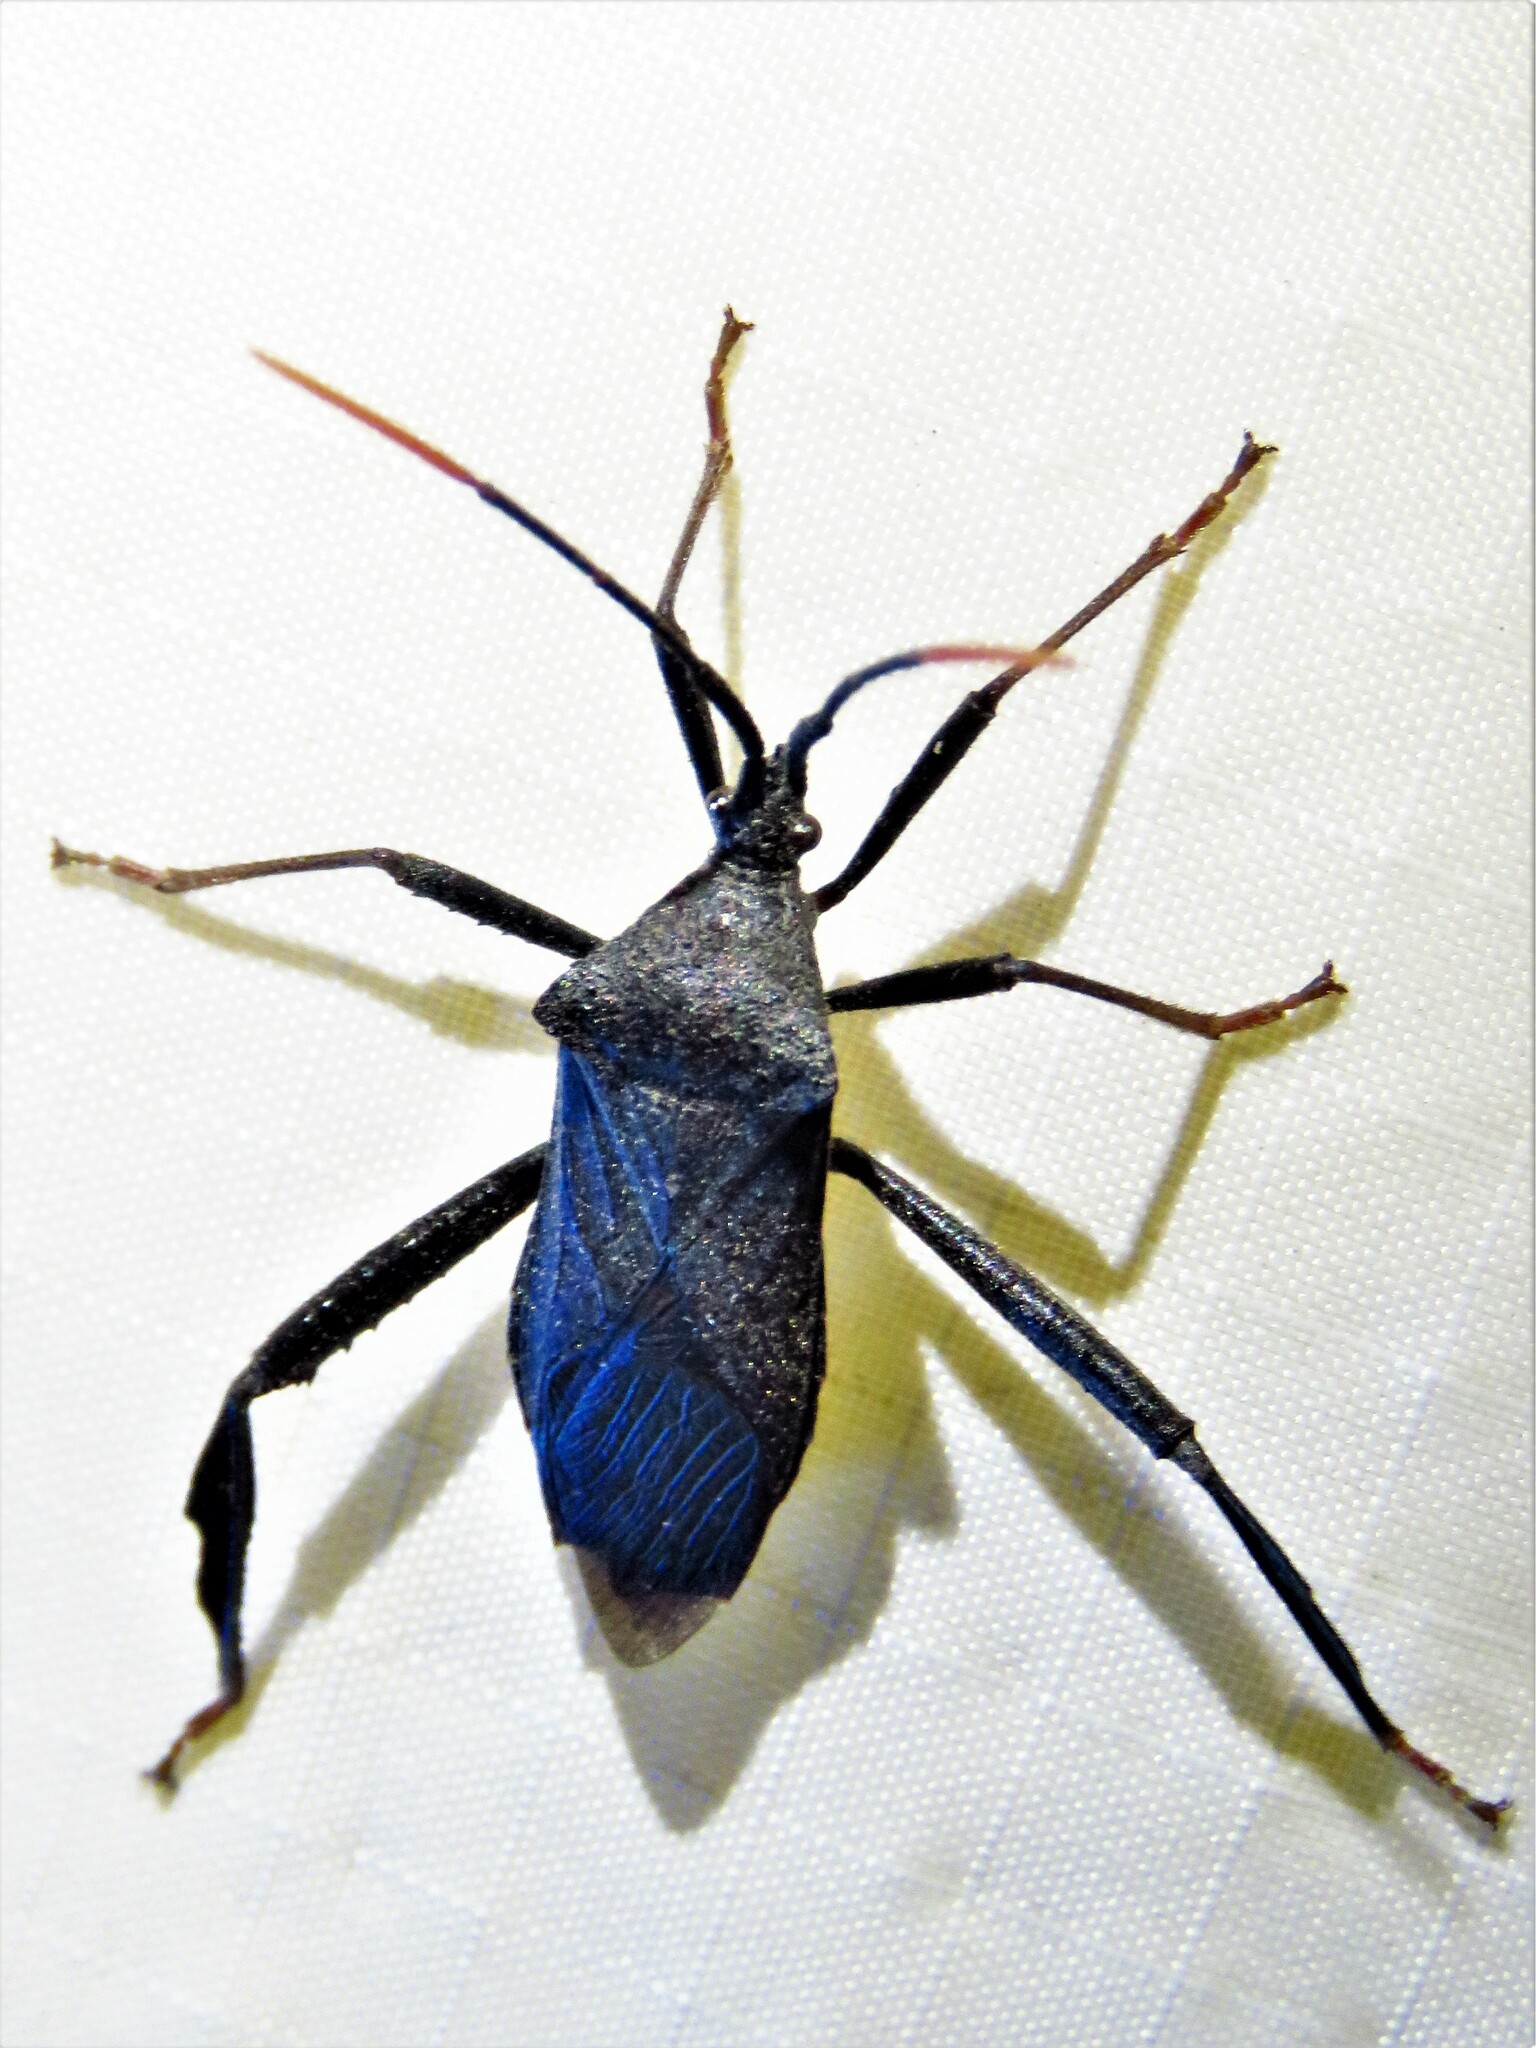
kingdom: Animalia
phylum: Arthropoda
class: Insecta
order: Hemiptera
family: Coreidae
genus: Acanthocephala
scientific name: Acanthocephala terminalis
